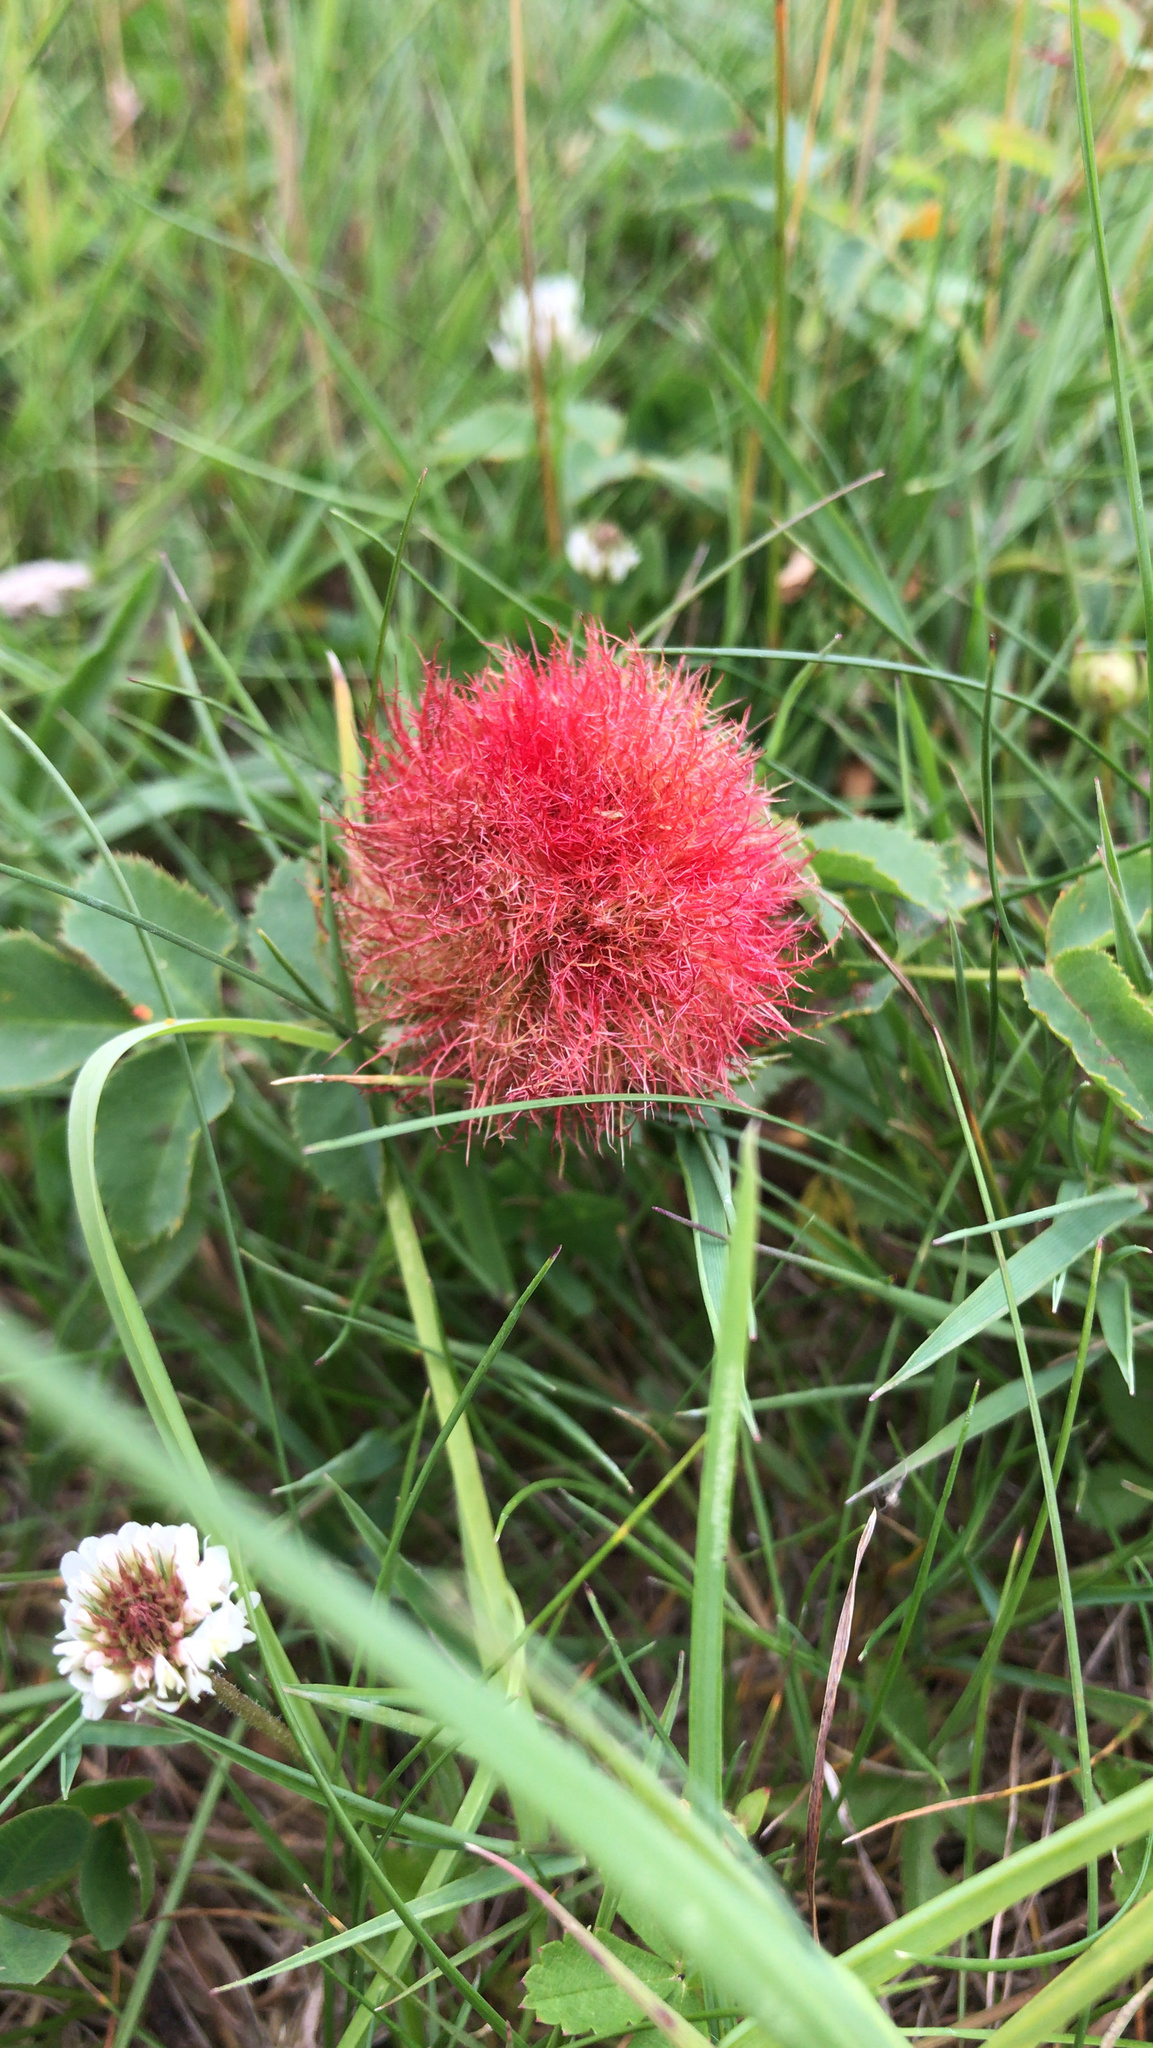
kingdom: Animalia
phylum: Arthropoda
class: Insecta
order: Hymenoptera
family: Cynipidae
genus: Diplolepis
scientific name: Diplolepis rosae
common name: Bedeguar gall
